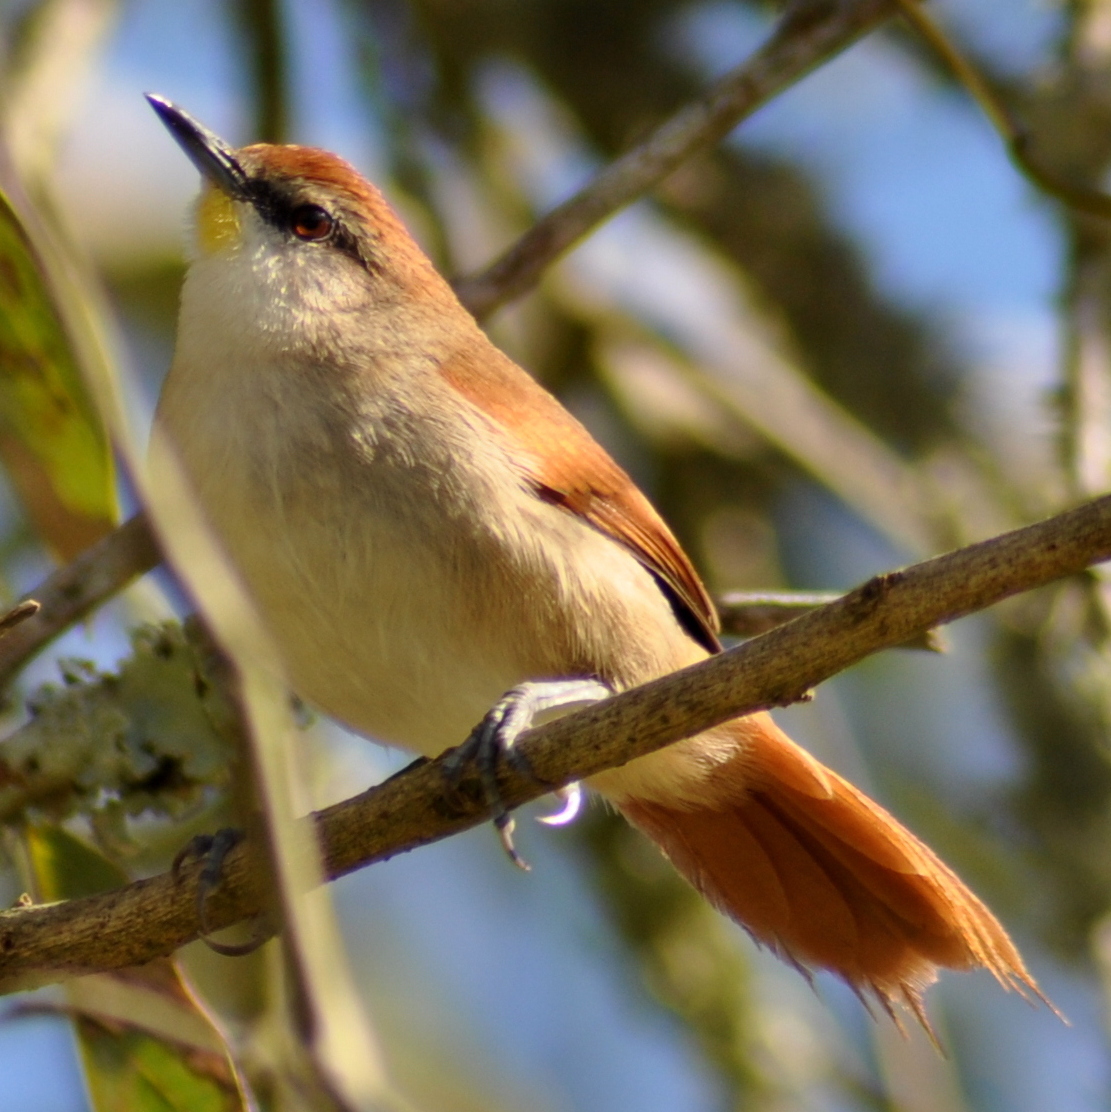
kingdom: Animalia
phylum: Chordata
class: Aves
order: Passeriformes
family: Furnariidae
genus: Certhiaxis
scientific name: Certhiaxis cinnamomeus
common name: Yellow-chinned spinetail
